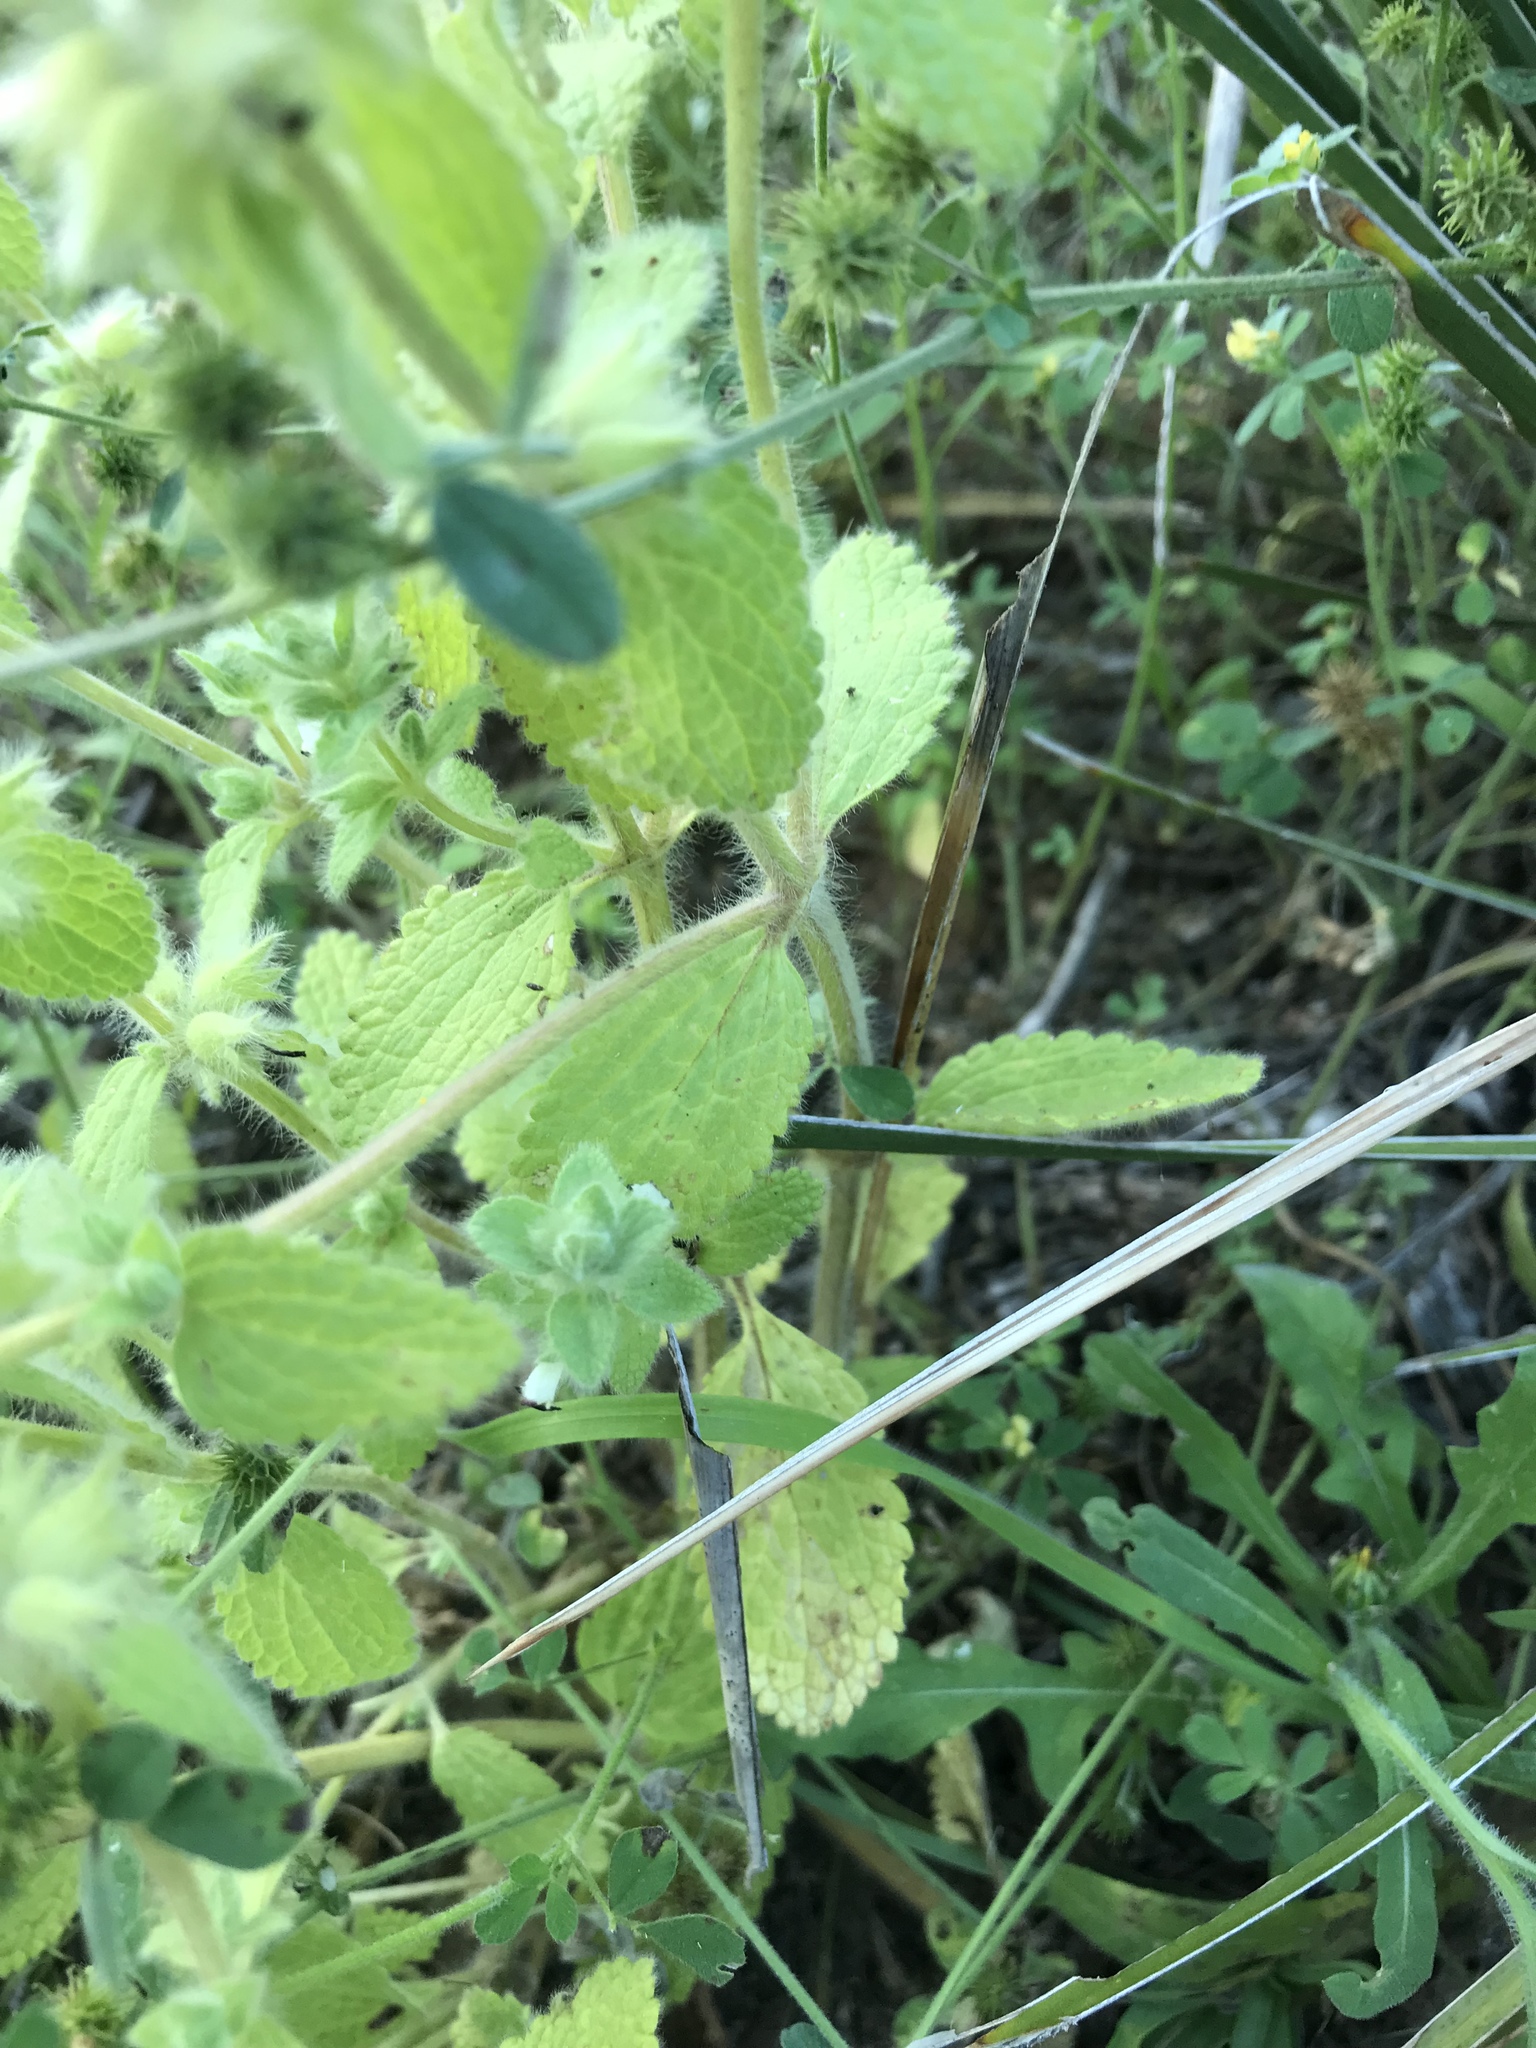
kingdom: Plantae
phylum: Tracheophyta
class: Magnoliopsida
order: Lamiales
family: Lamiaceae
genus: Sideritis
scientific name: Sideritis lanata
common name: Hairy ironwort
